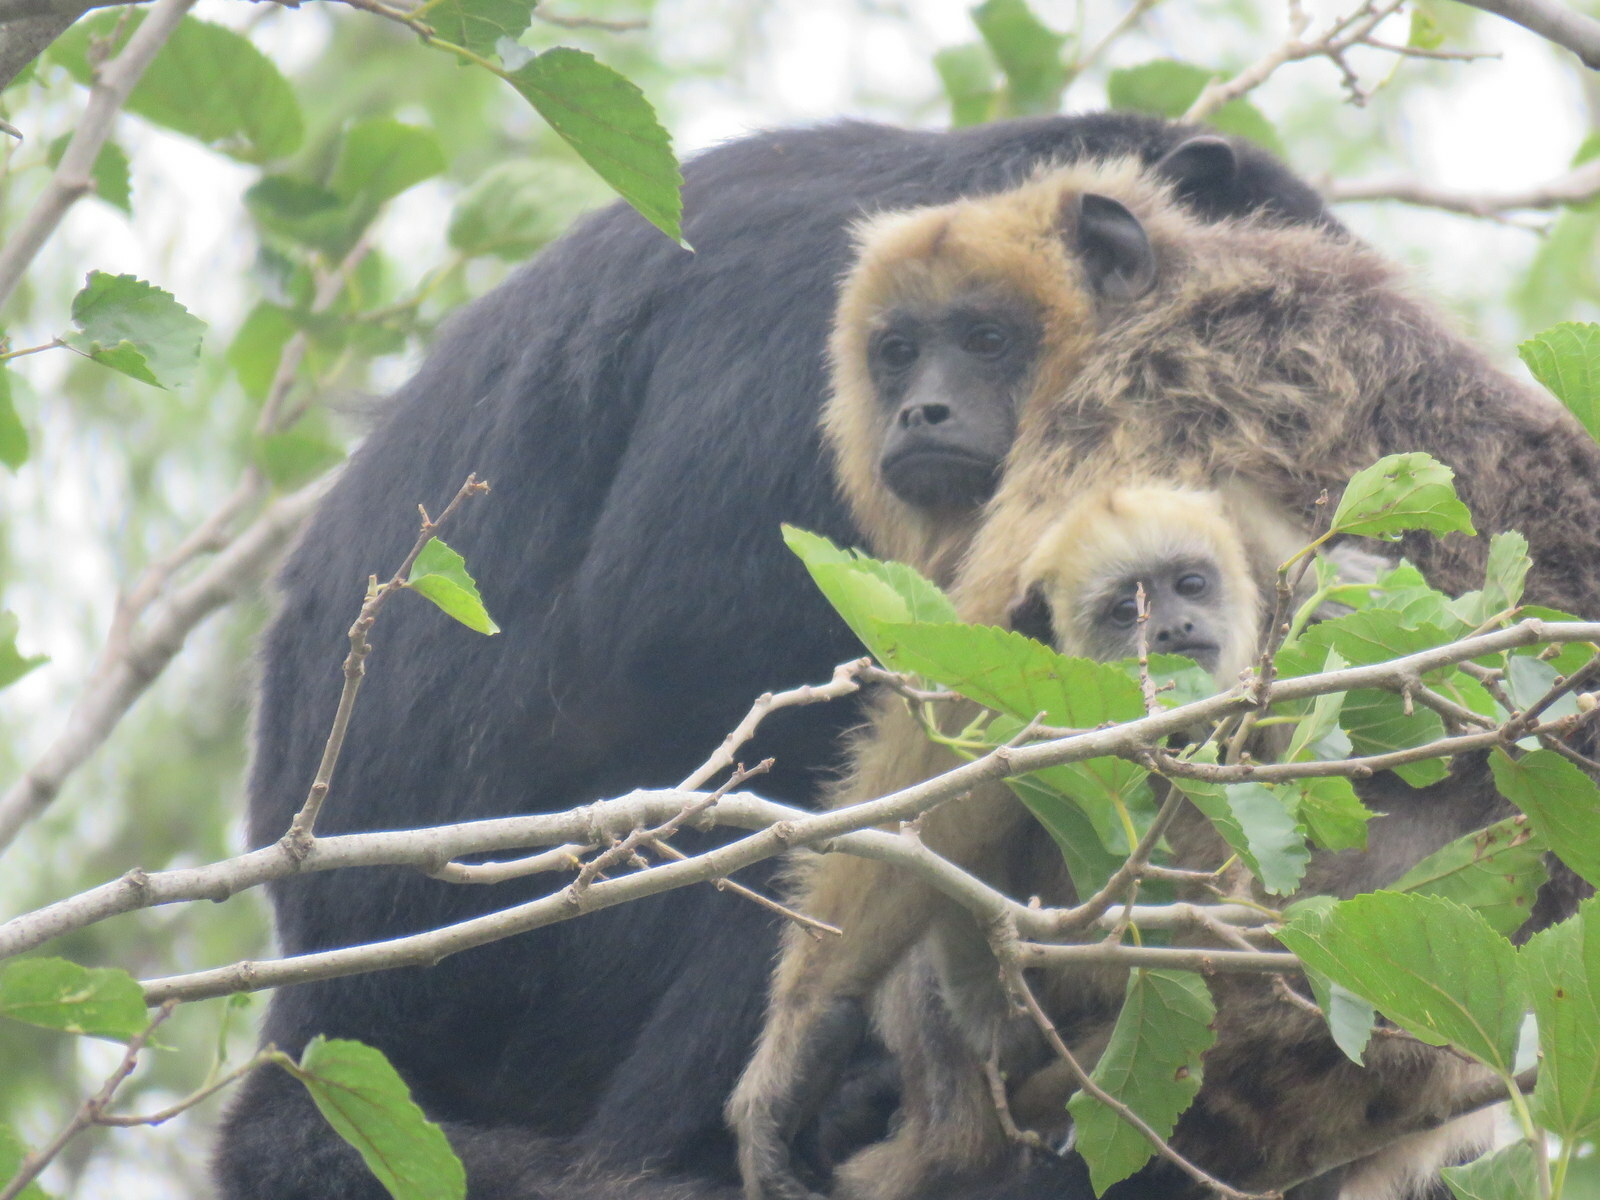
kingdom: Animalia
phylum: Chordata
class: Mammalia
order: Primates
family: Atelidae
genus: Alouatta
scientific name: Alouatta caraya
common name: Black howler
